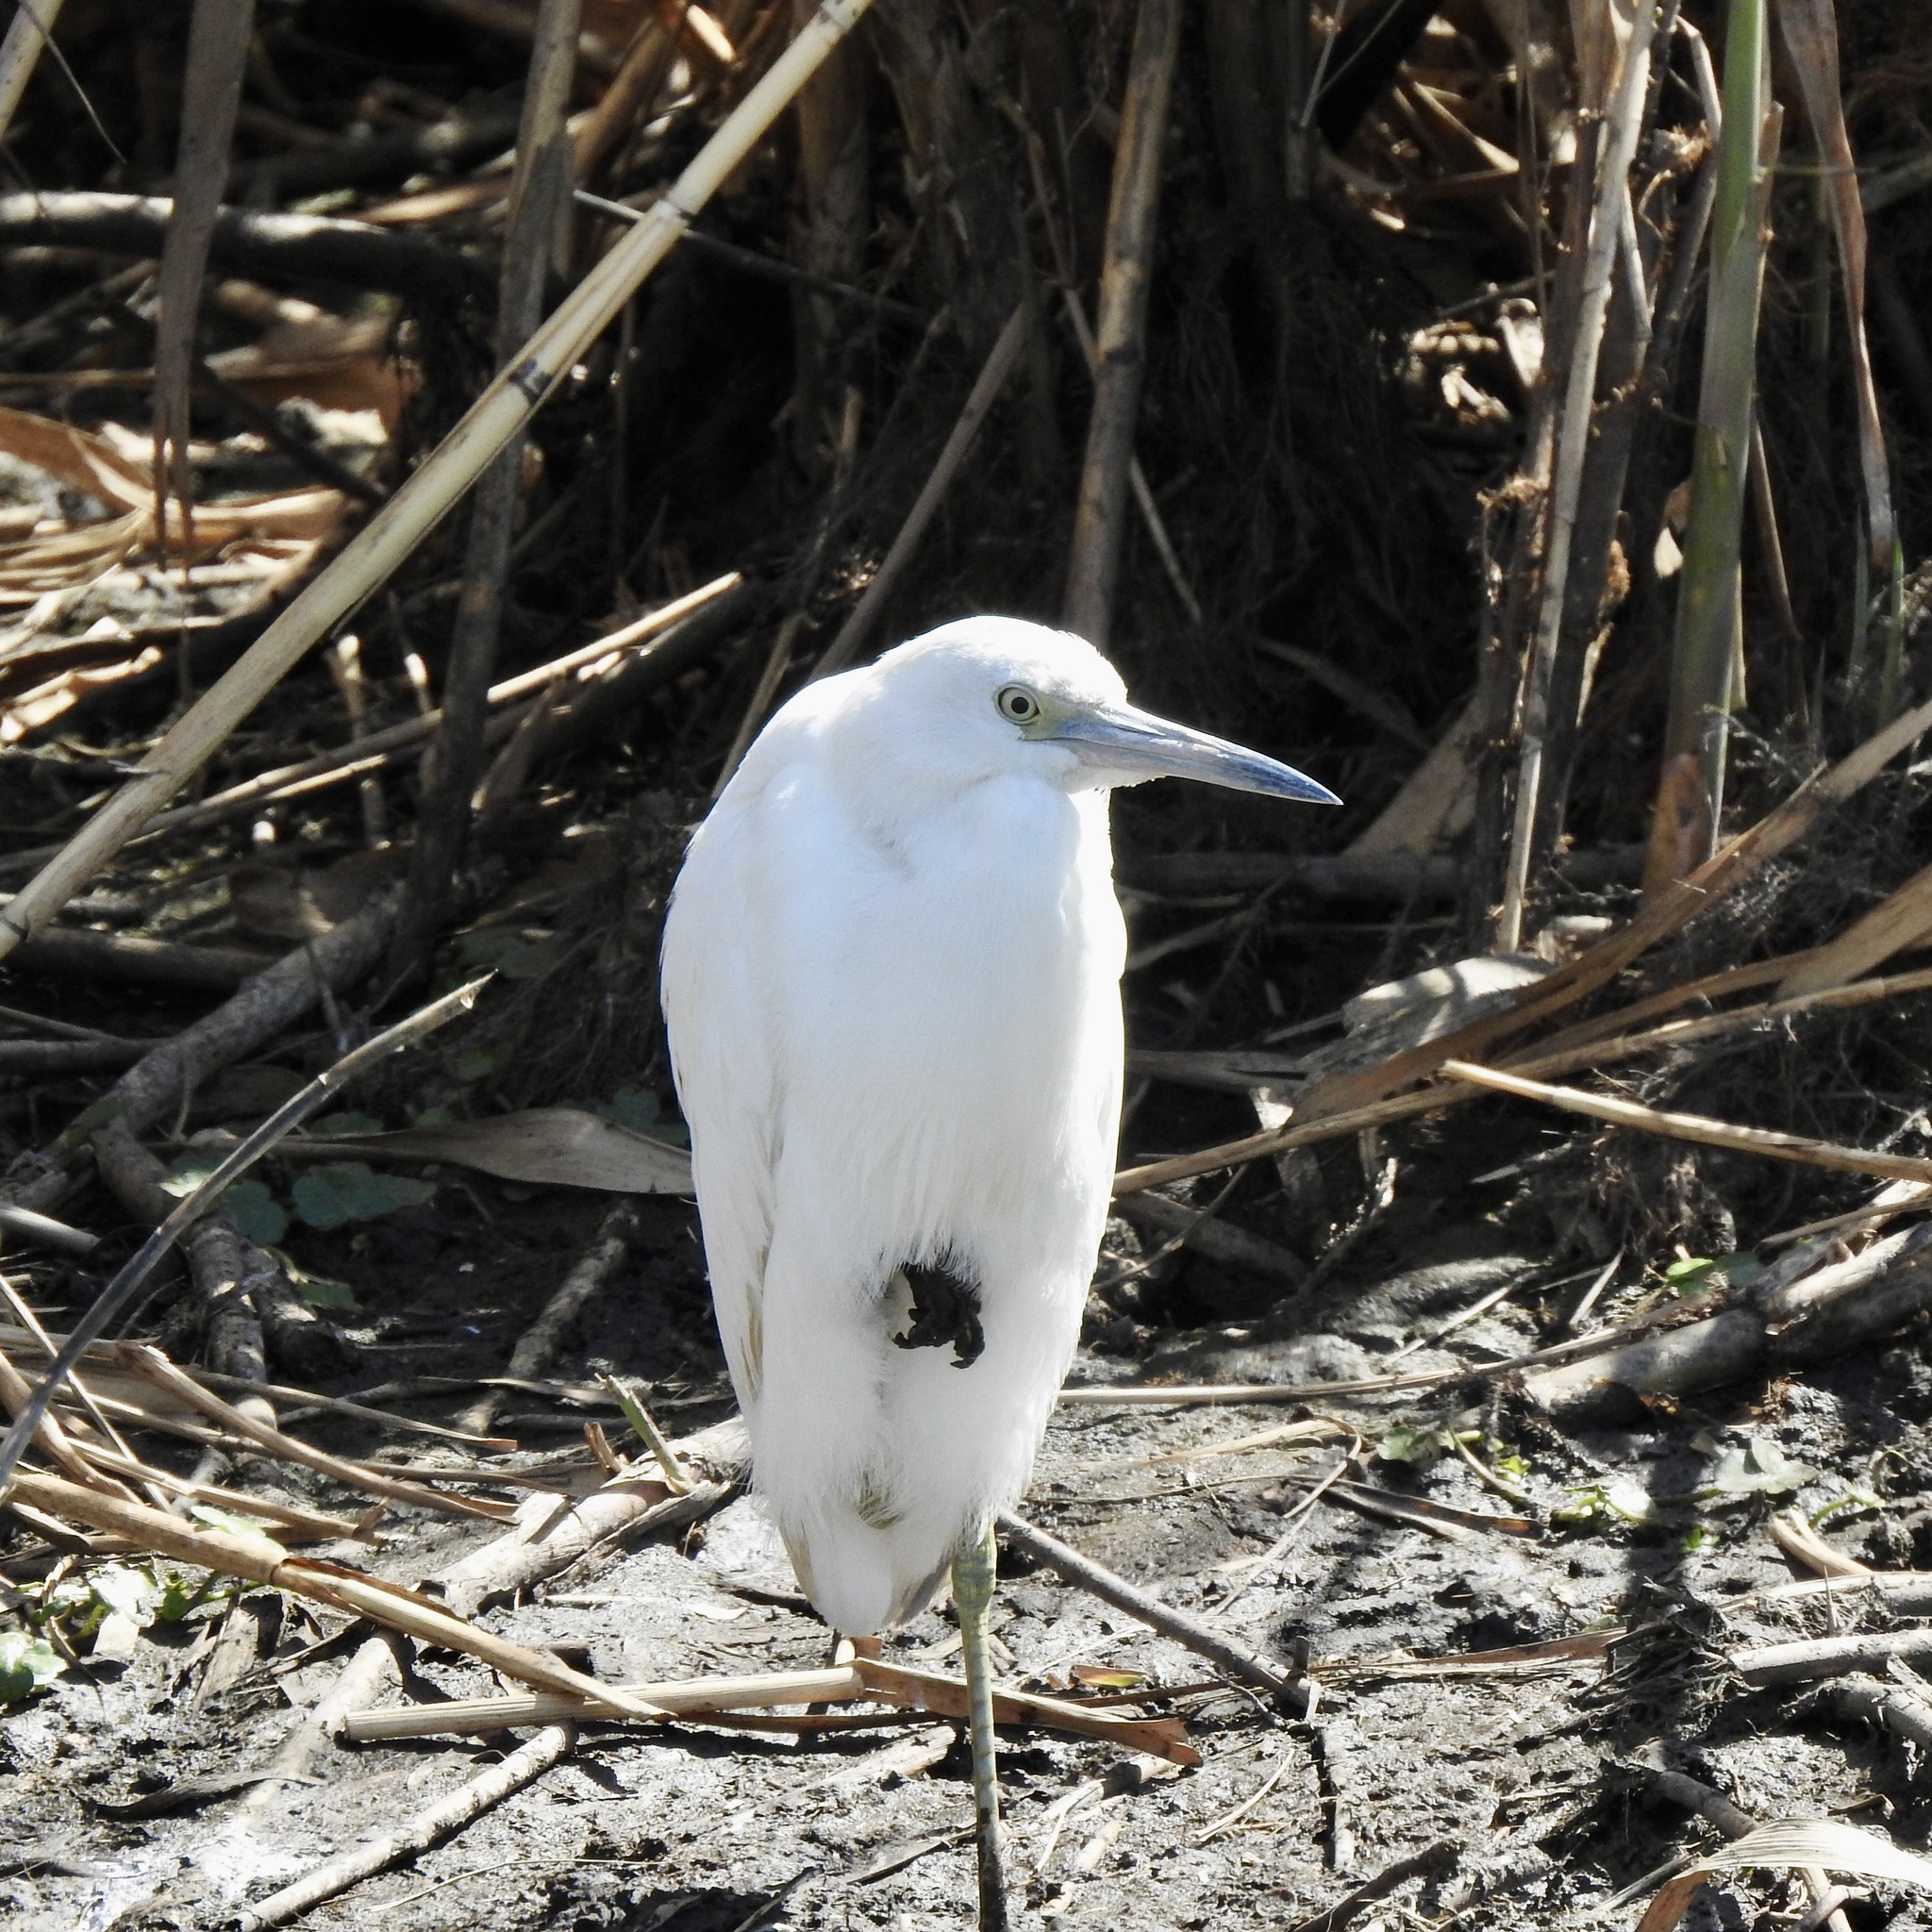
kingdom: Animalia
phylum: Chordata
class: Aves
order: Pelecaniformes
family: Ardeidae
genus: Egretta
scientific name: Egretta caerulea
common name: Little blue heron
